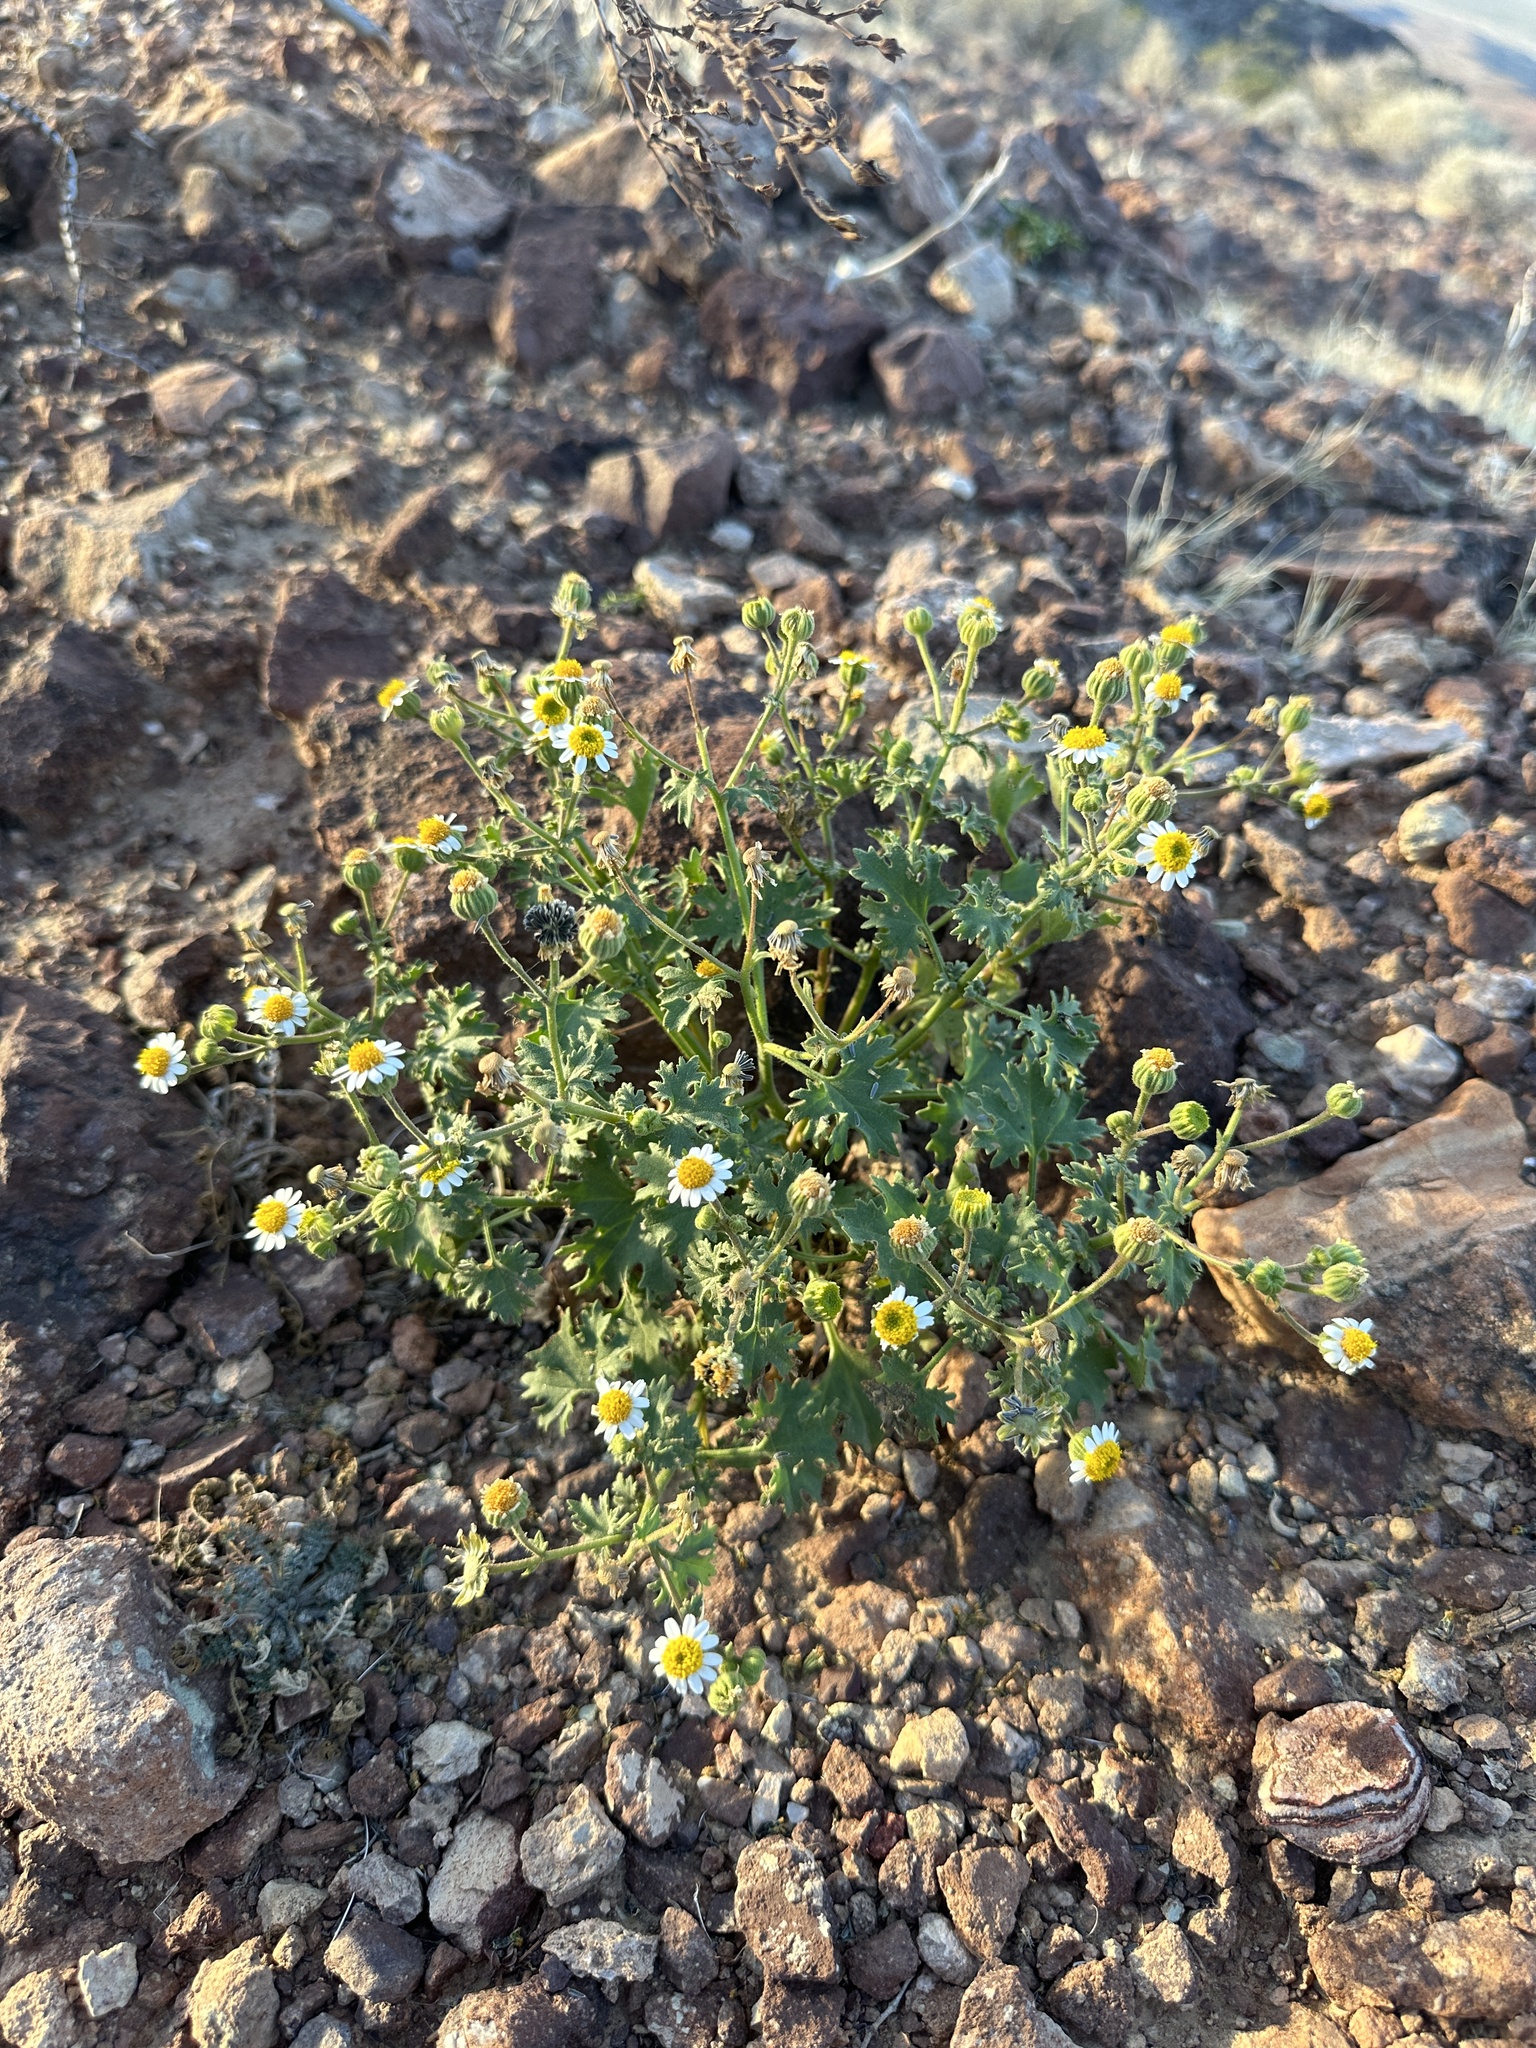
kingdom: Plantae
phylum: Tracheophyta
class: Magnoliopsida
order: Asterales
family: Asteraceae
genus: Laphamia
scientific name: Laphamia emoryi
